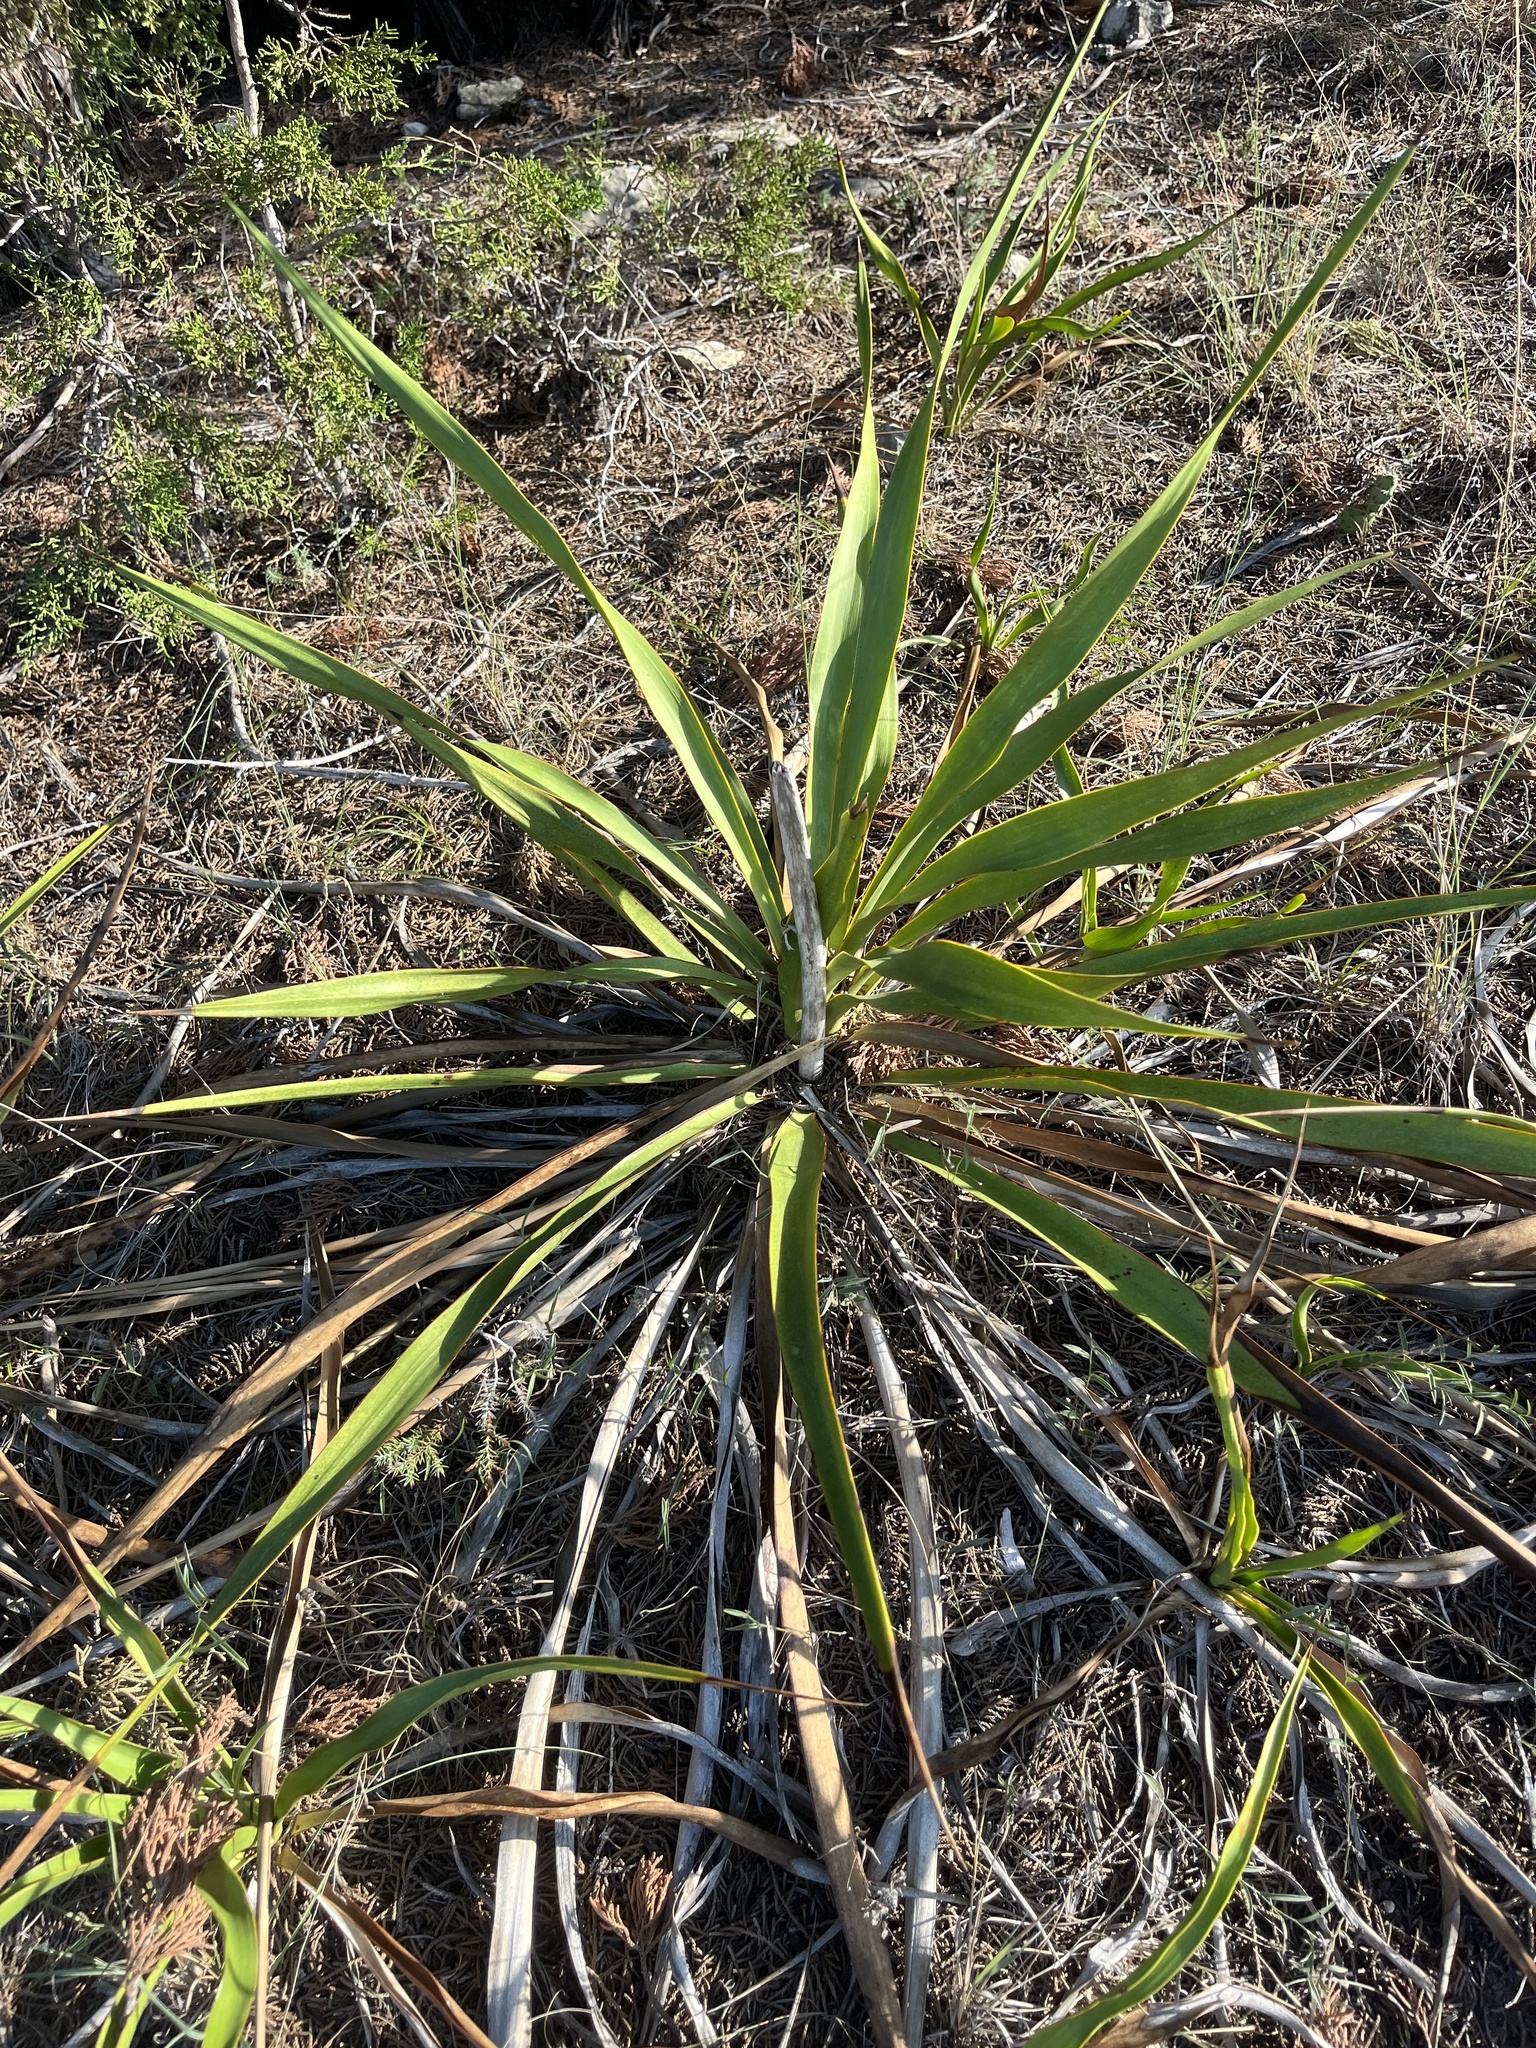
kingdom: Plantae
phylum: Tracheophyta
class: Liliopsida
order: Asparagales
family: Asparagaceae
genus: Yucca
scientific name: Yucca rupicola
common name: Twisted-leaf spanish-dagger
